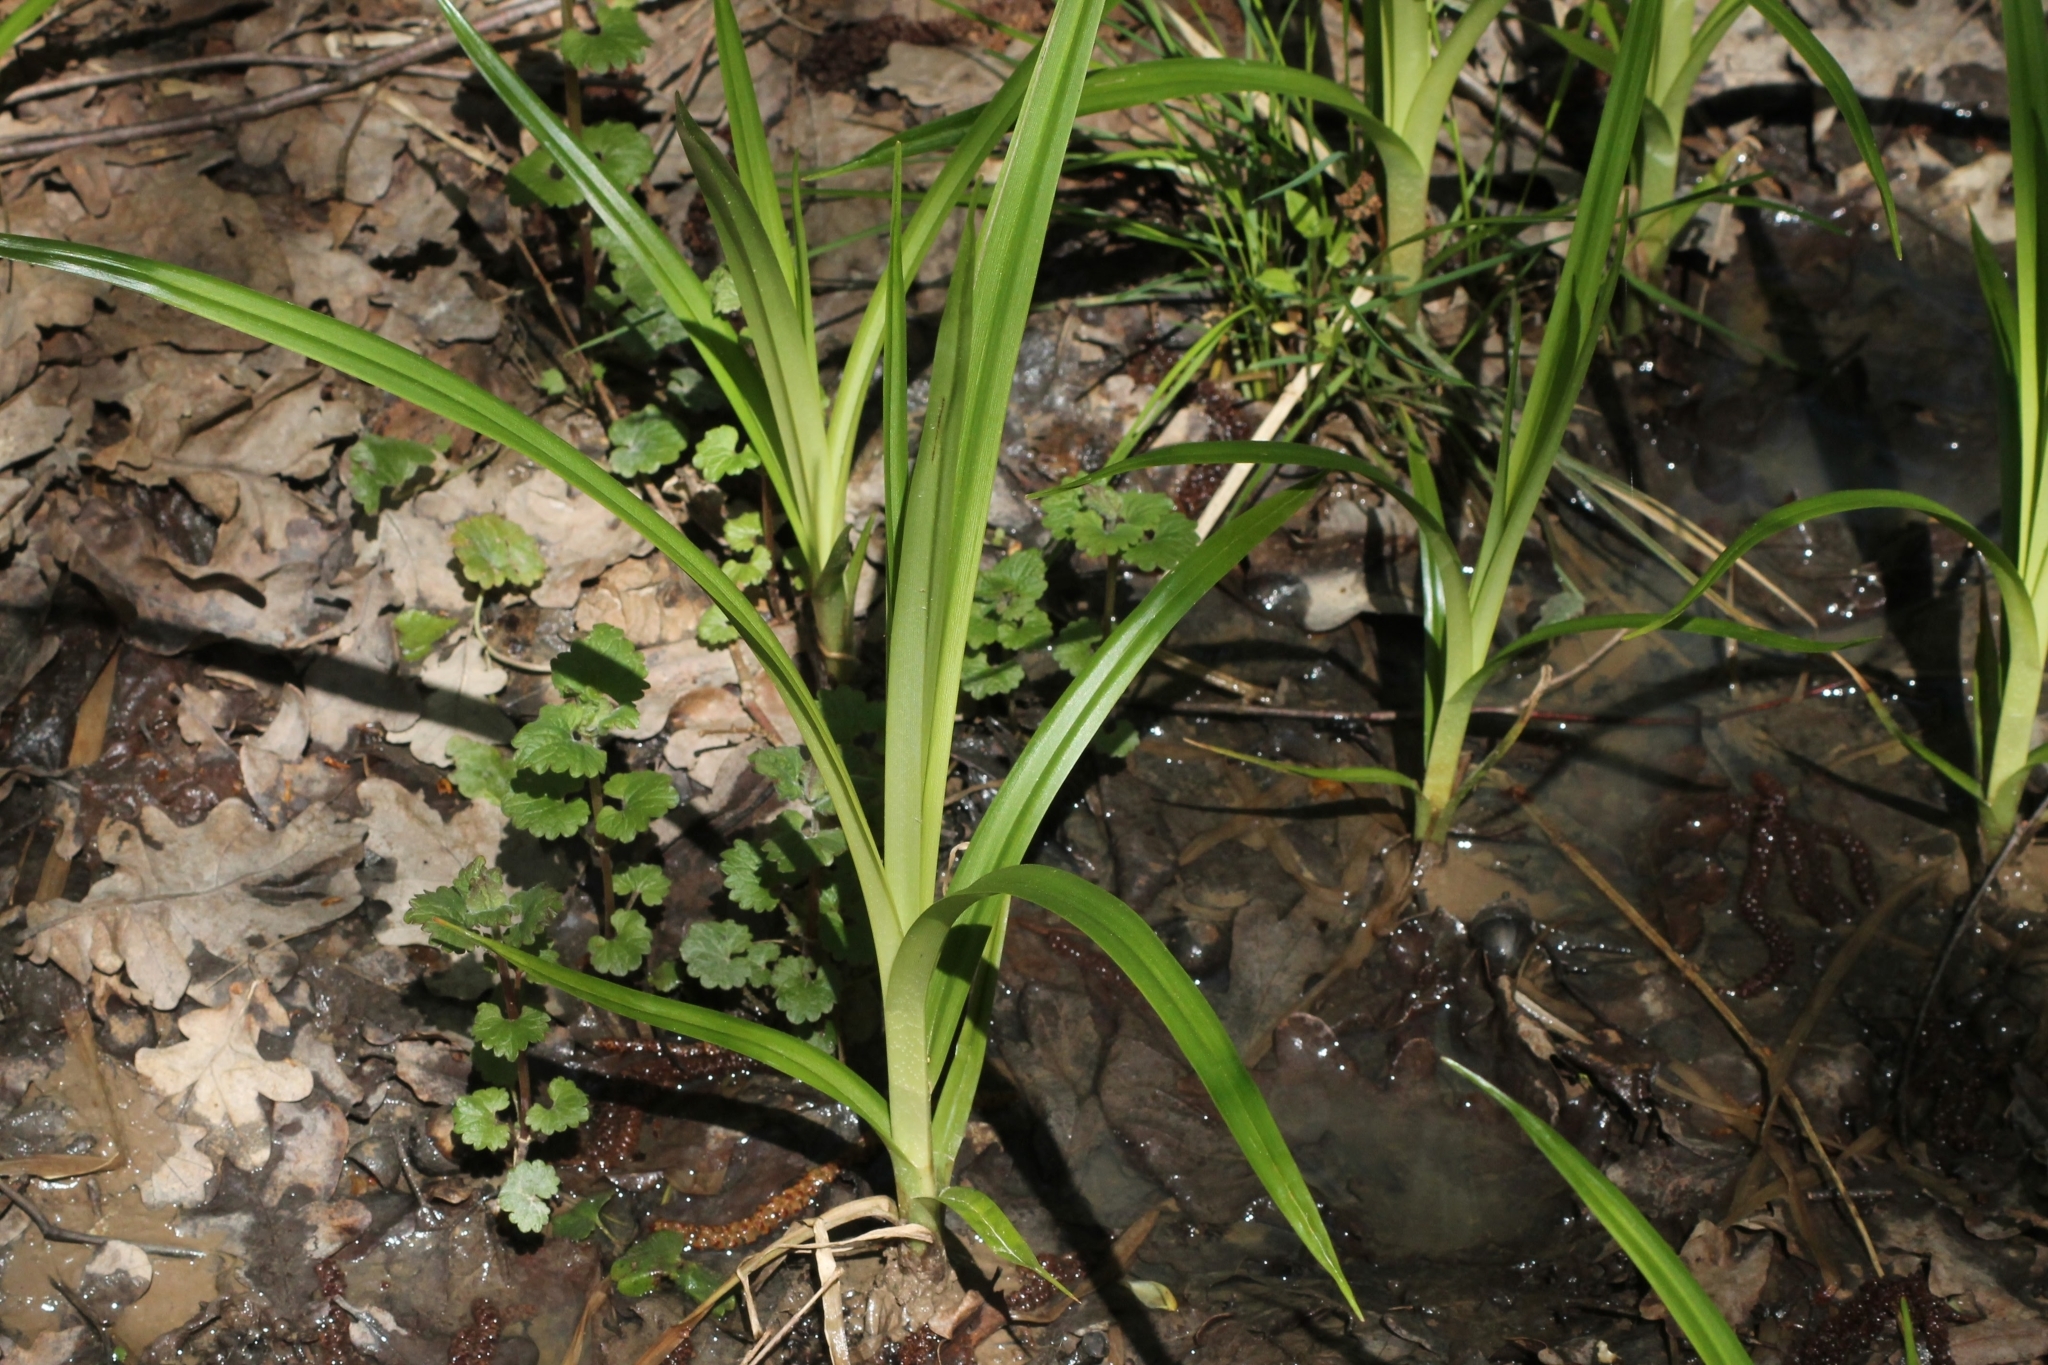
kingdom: Plantae
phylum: Tracheophyta
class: Liliopsida
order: Poales
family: Cyperaceae
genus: Scirpus
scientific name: Scirpus sylvaticus
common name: Wood club-rush
